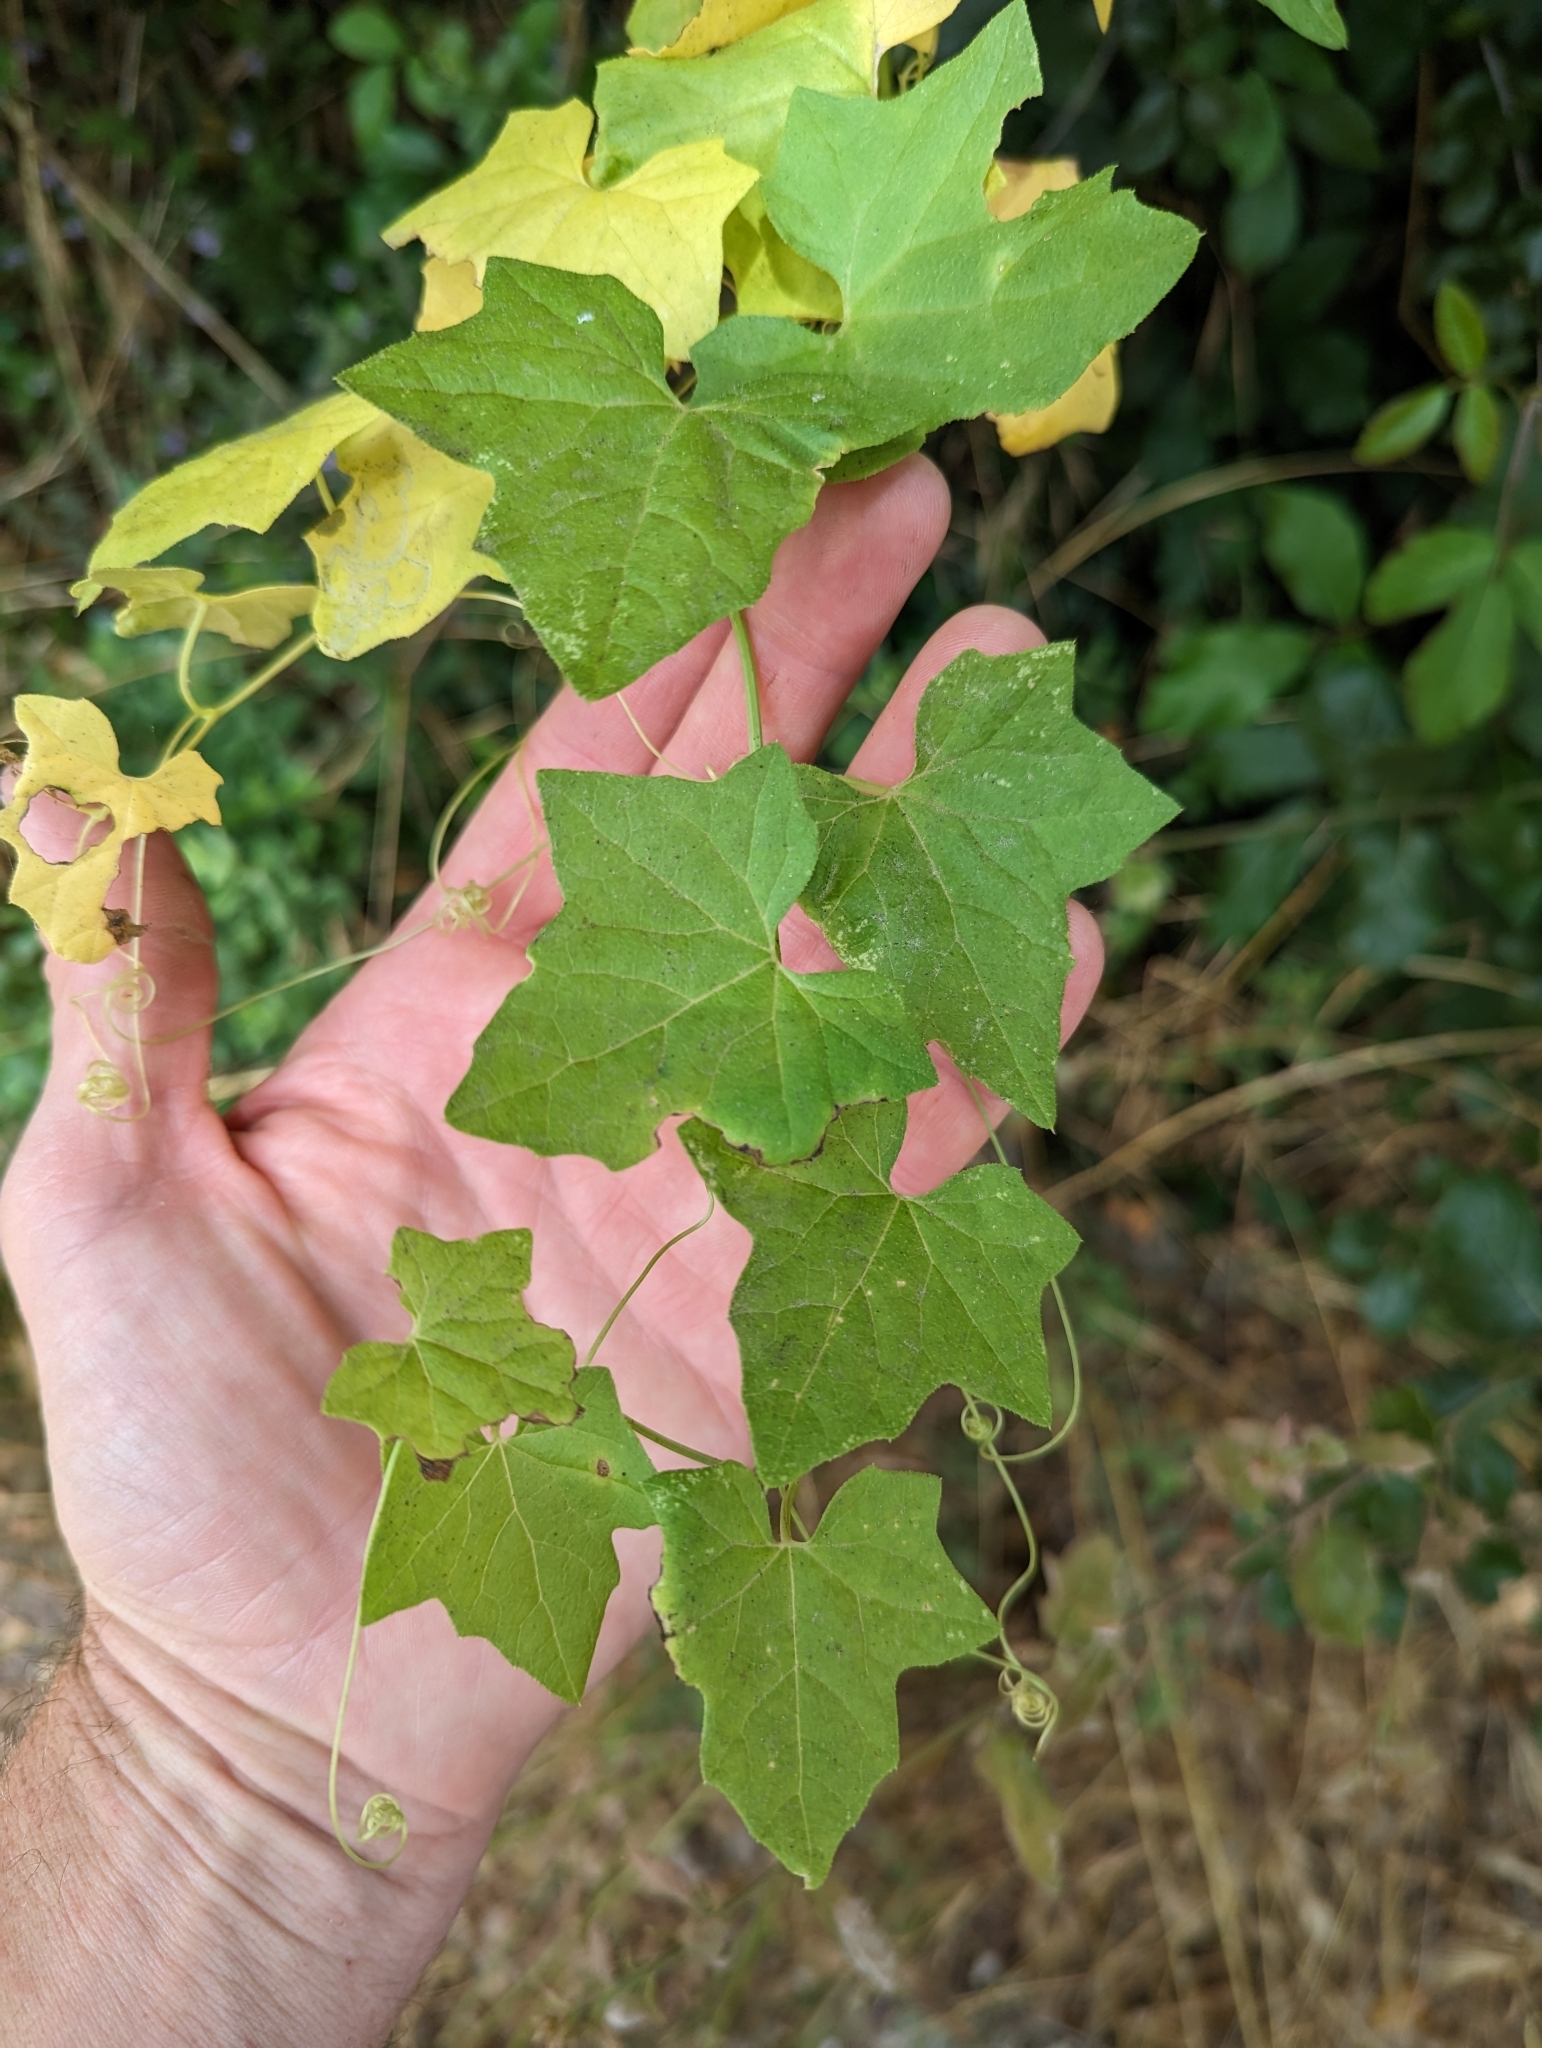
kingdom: Plantae
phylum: Tracheophyta
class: Magnoliopsida
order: Cucurbitales
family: Cucurbitaceae
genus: Marah
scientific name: Marah macrocarpa
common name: Cucamonga manroot
